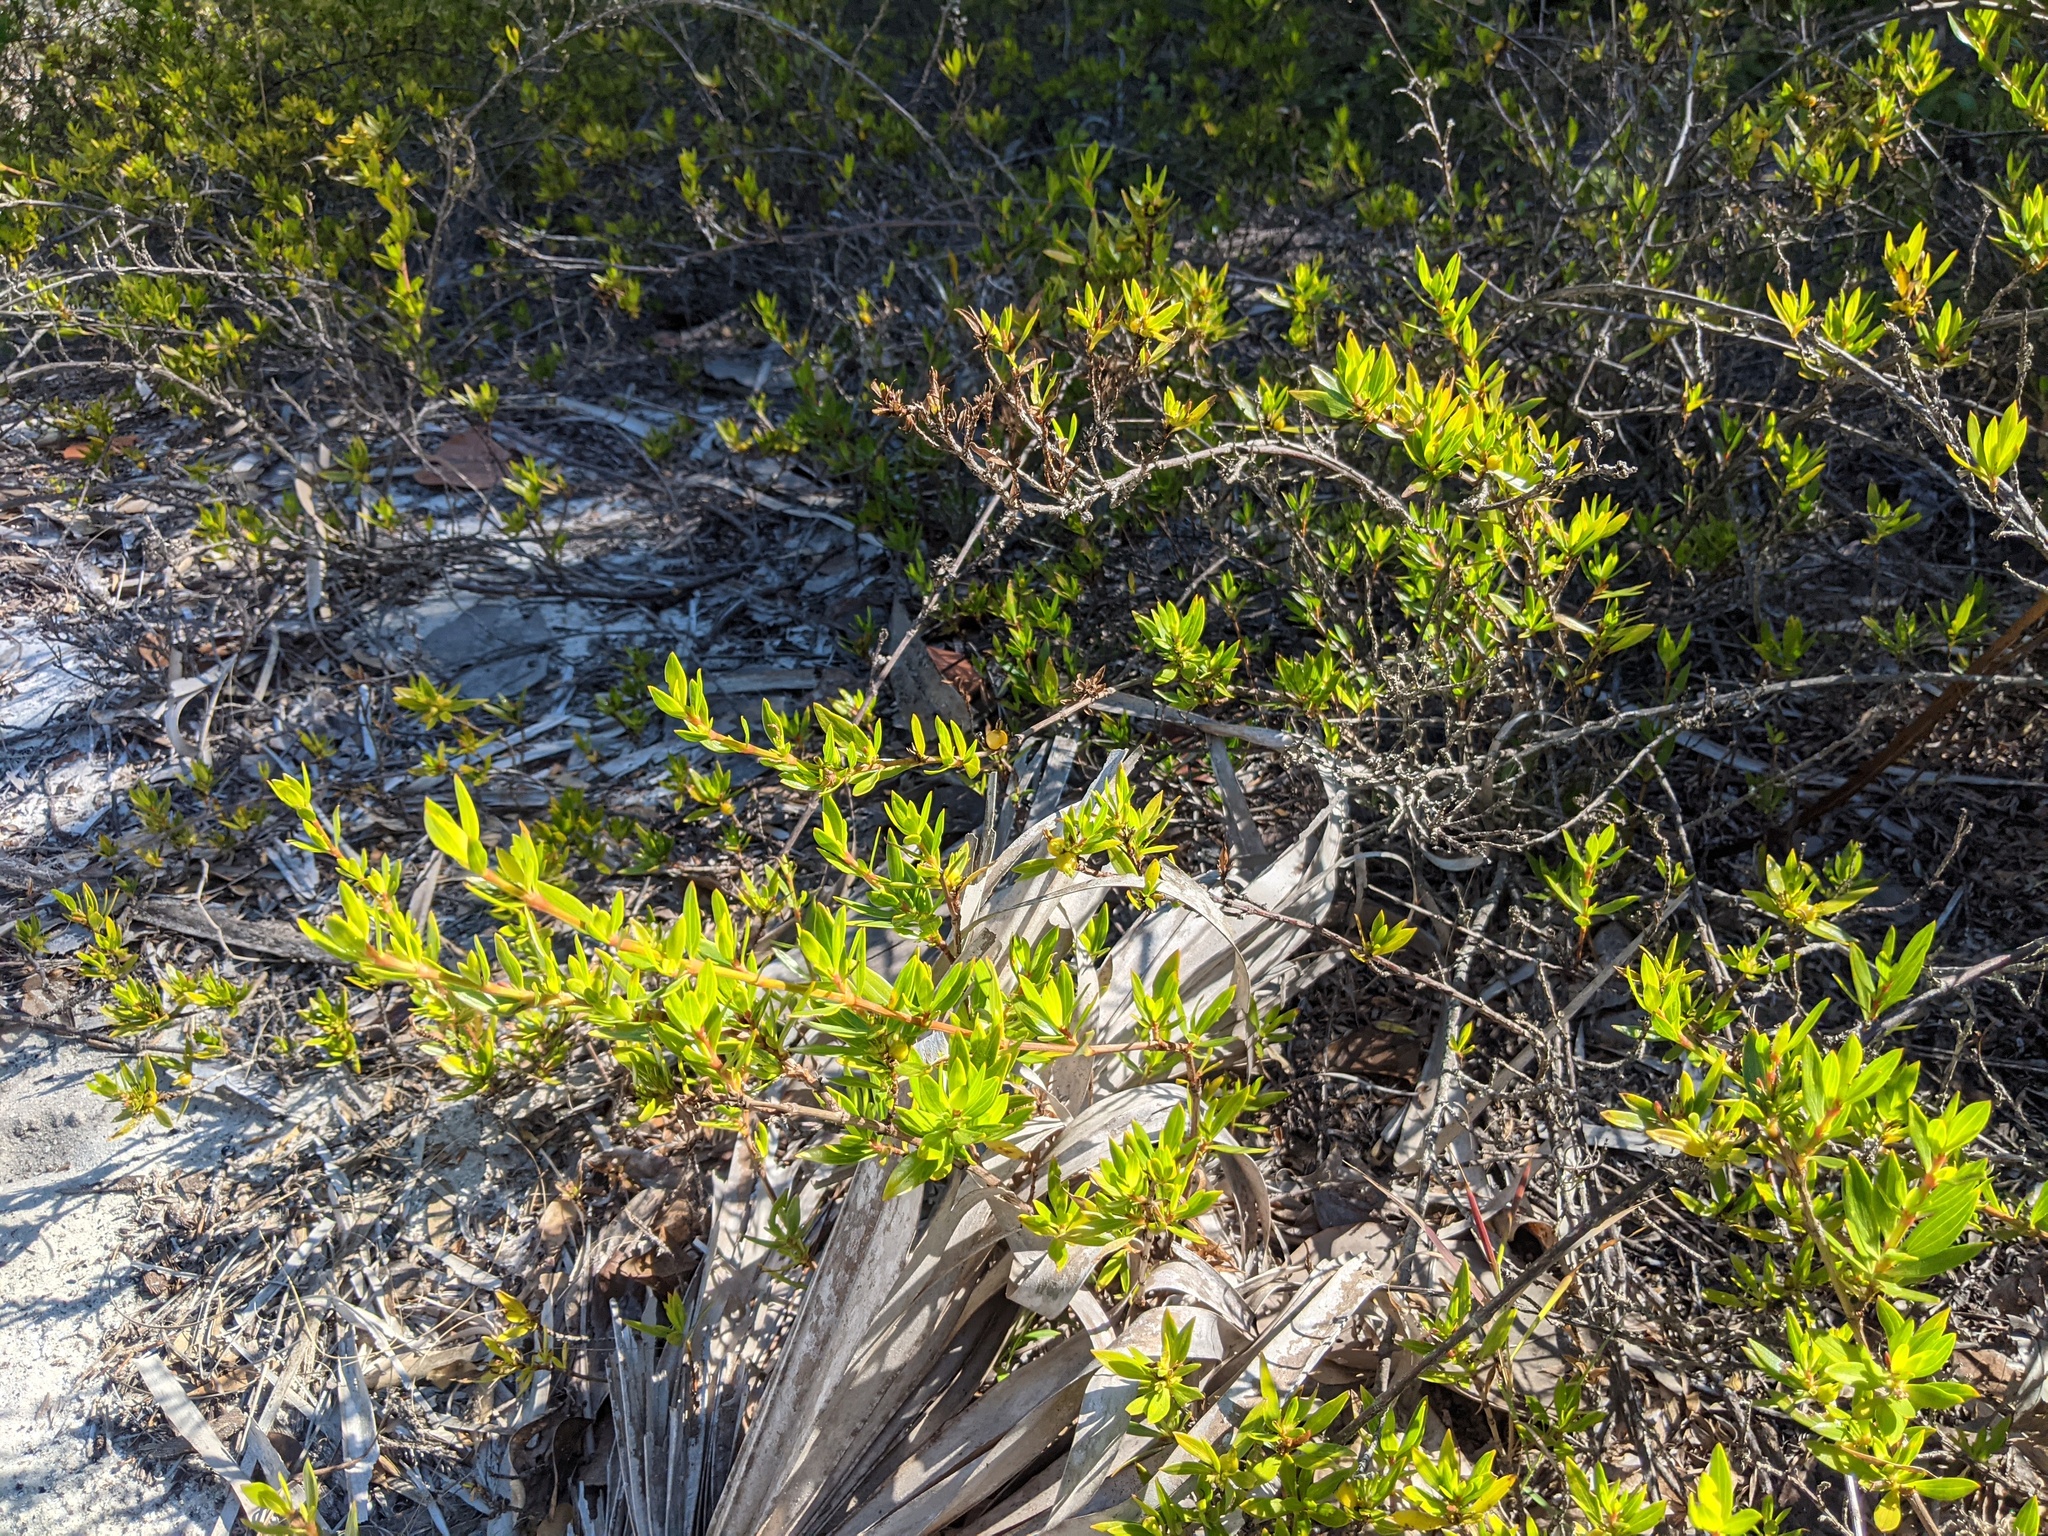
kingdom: Plantae
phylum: Tracheophyta
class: Magnoliopsida
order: Gentianales
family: Rubiaceae
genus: Ernodea
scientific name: Ernodea littoralis
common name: Beach creeper
